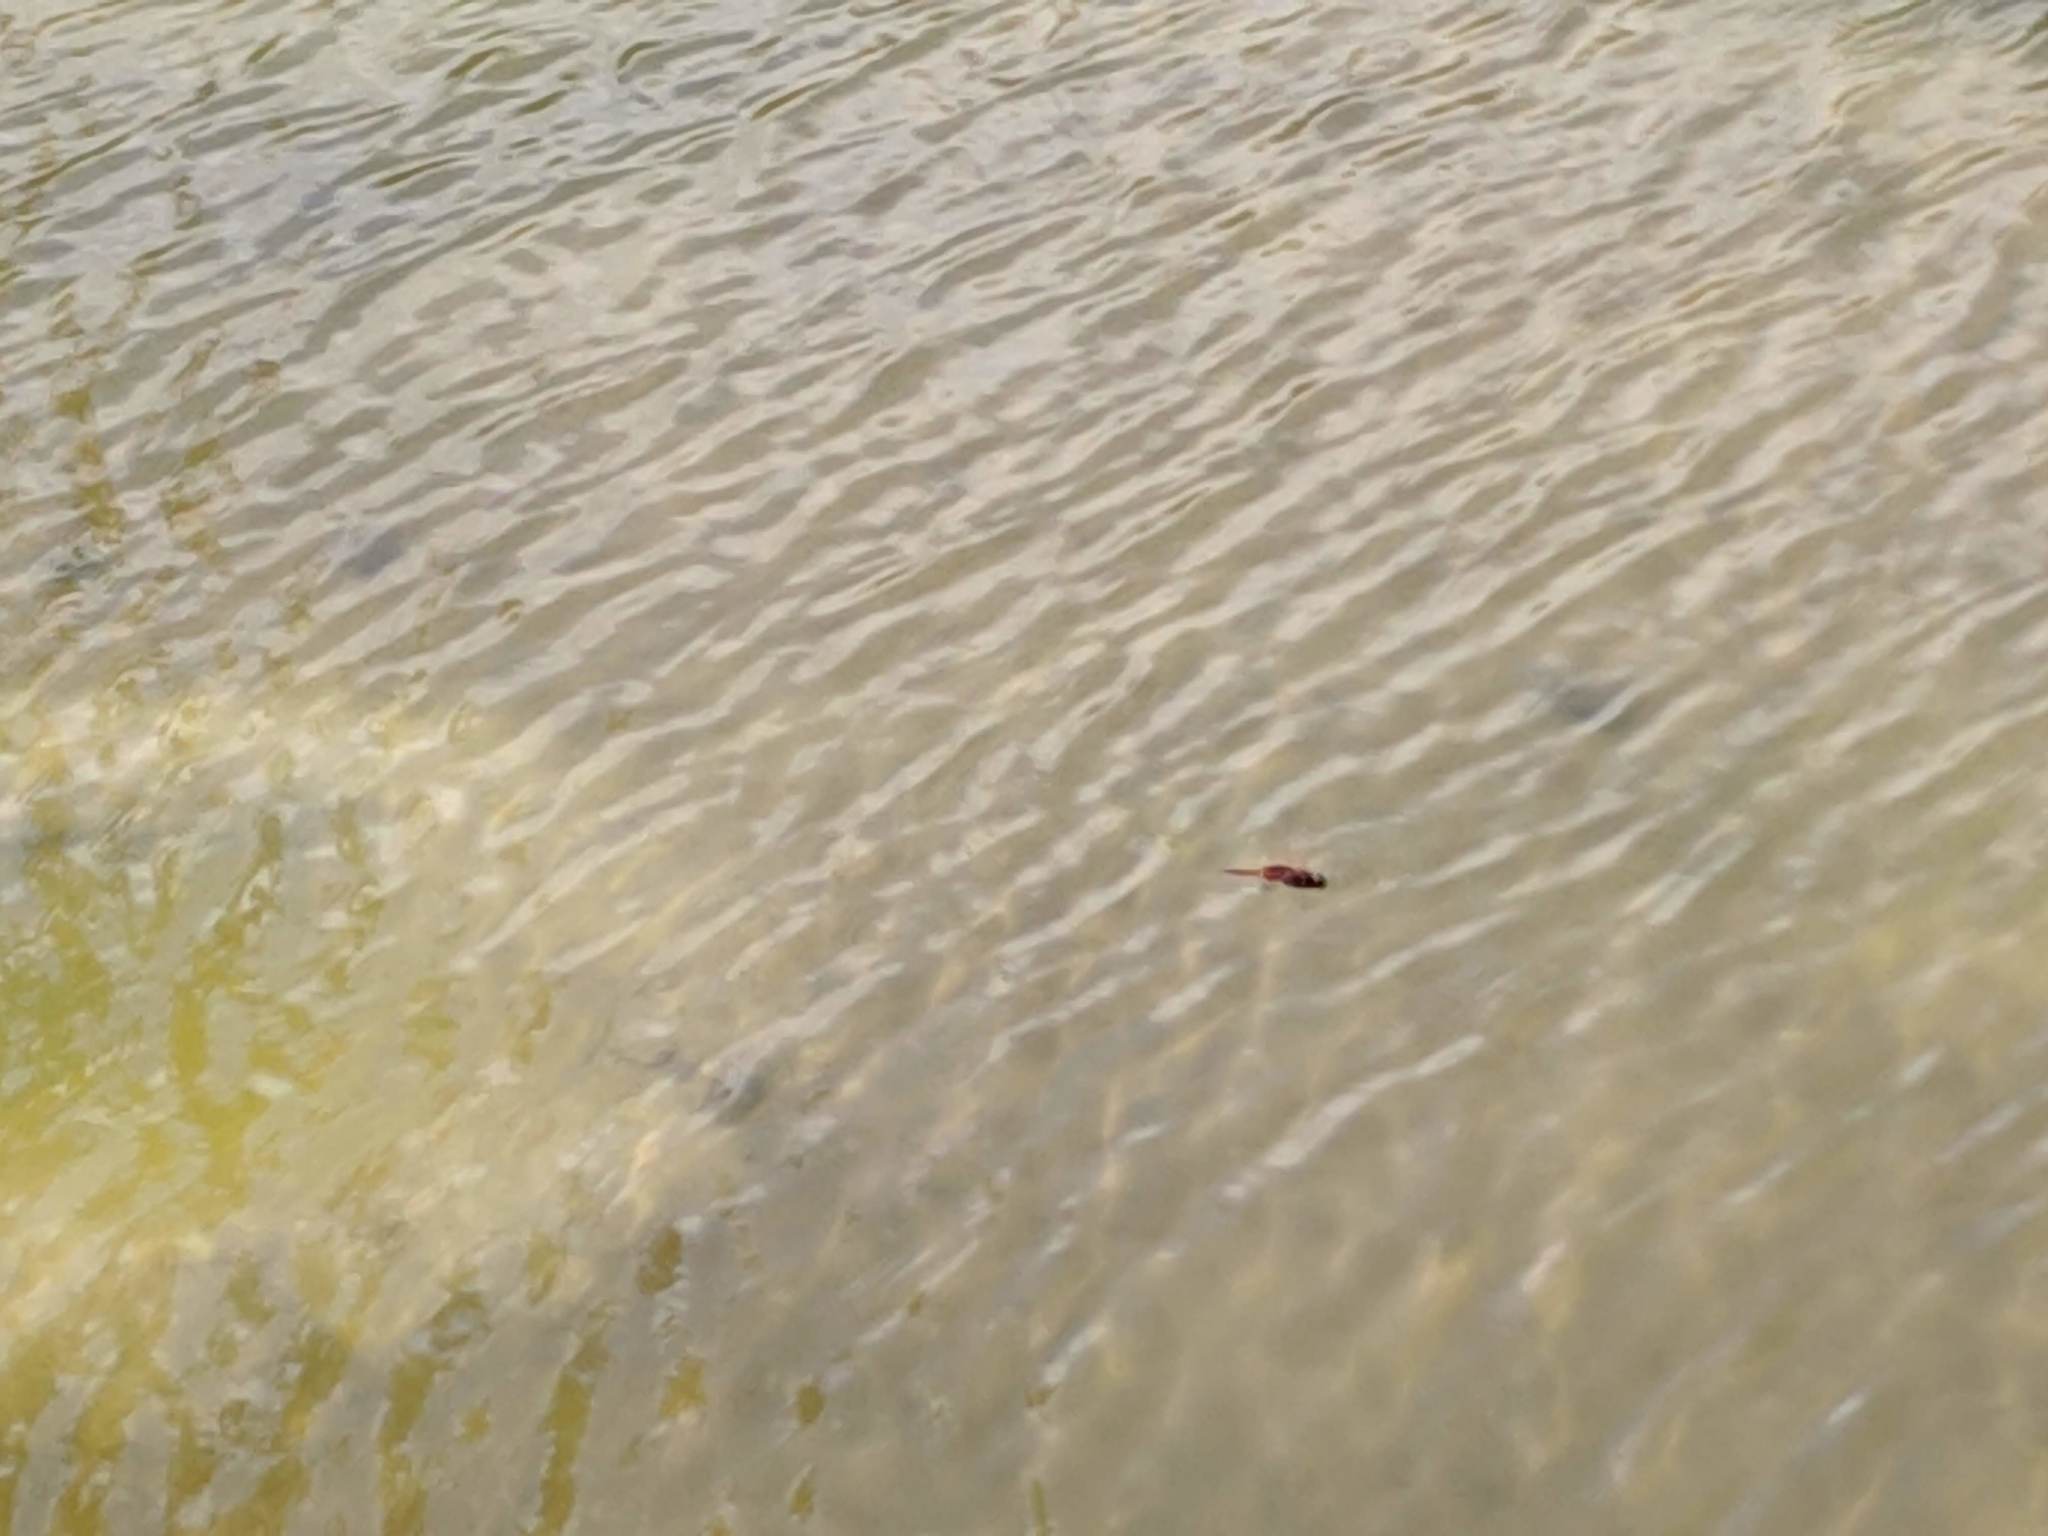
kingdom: Animalia
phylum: Arthropoda
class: Insecta
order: Odonata
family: Libellulidae
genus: Tramea
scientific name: Tramea limbata
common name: Ferruginous glider
